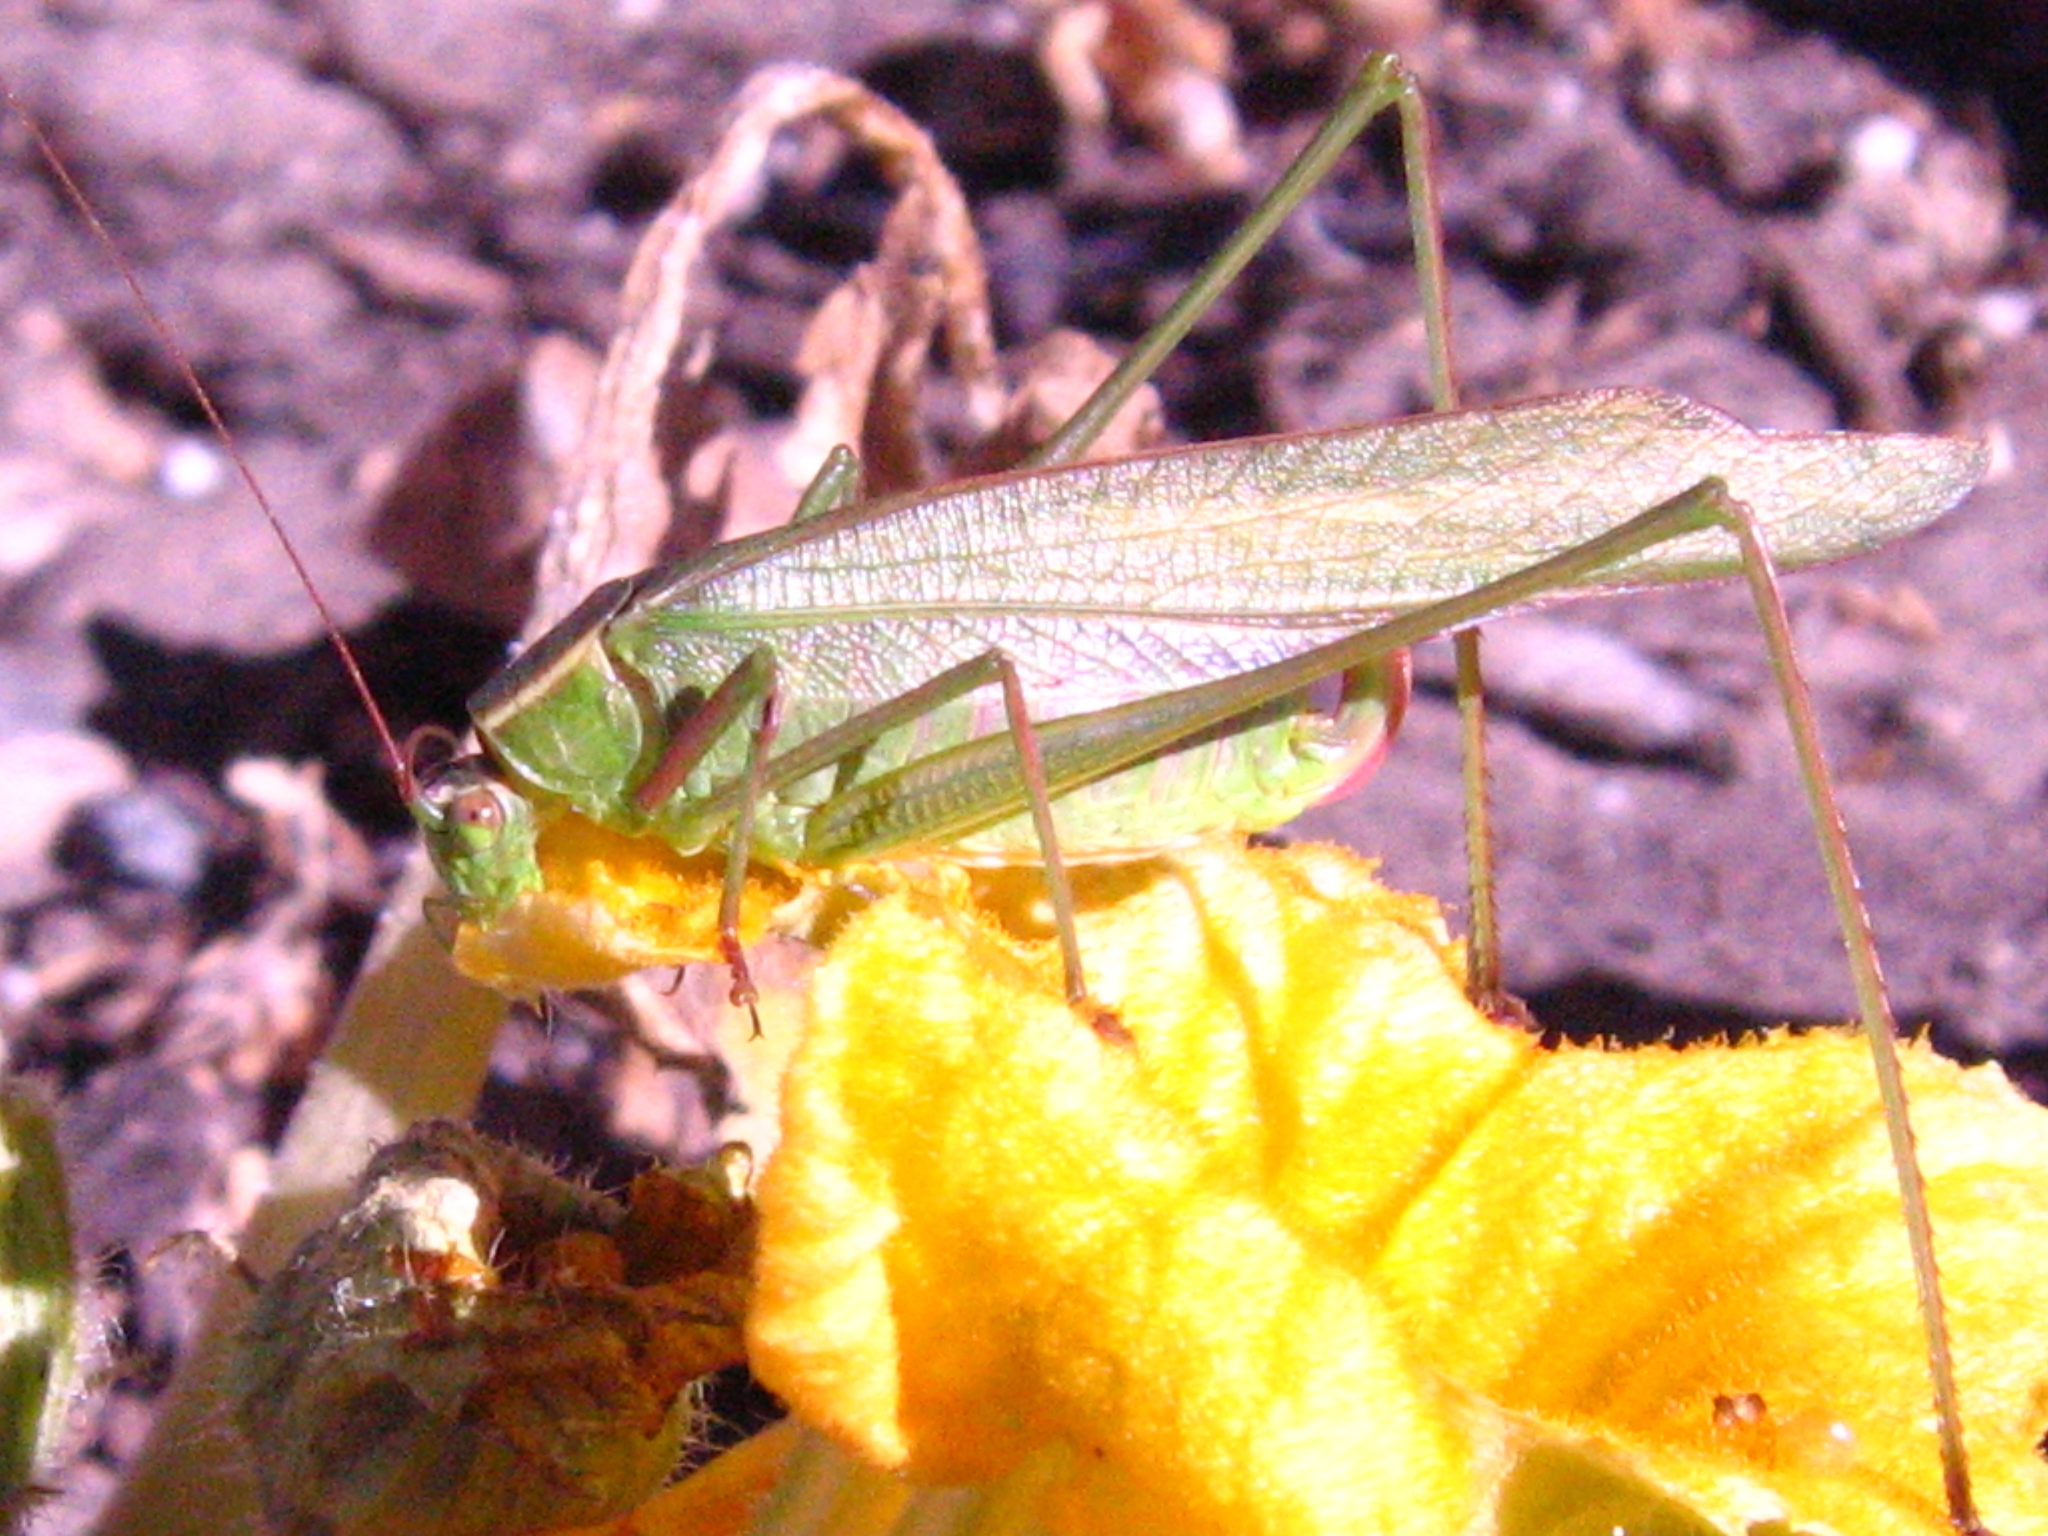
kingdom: Animalia
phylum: Arthropoda
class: Insecta
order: Orthoptera
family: Tettigoniidae
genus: Scudderia
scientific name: Scudderia mexicana
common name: Mexican bush katydid
